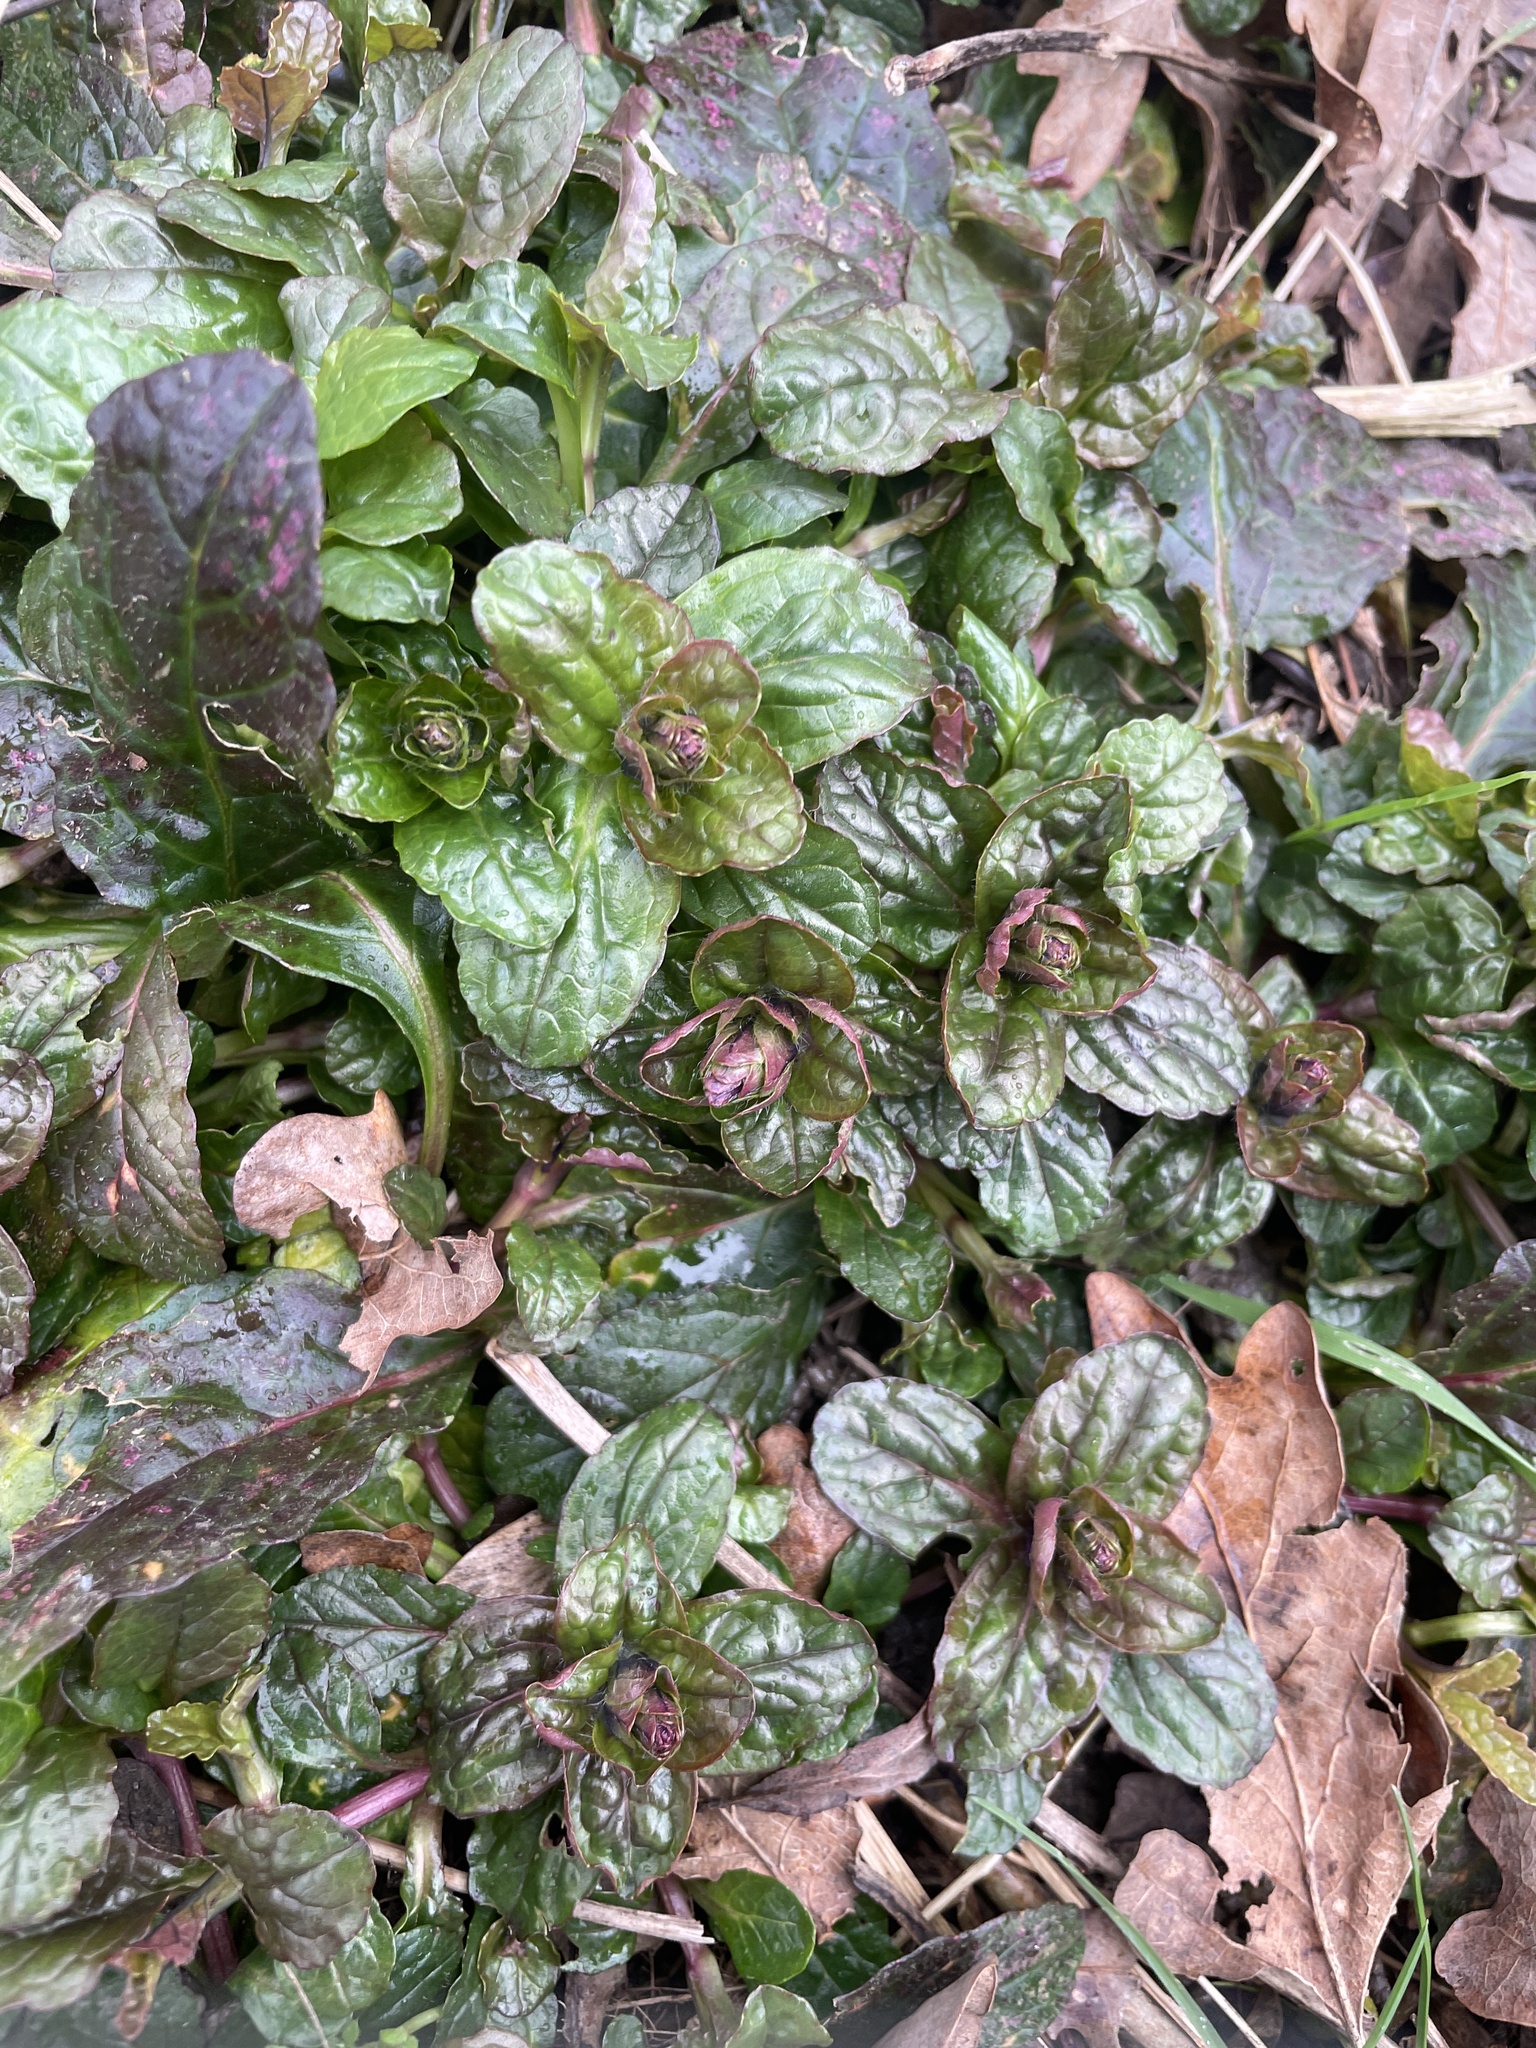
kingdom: Plantae
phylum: Tracheophyta
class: Magnoliopsida
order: Lamiales
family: Lamiaceae
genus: Ajuga
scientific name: Ajuga reptans
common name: Bugle
